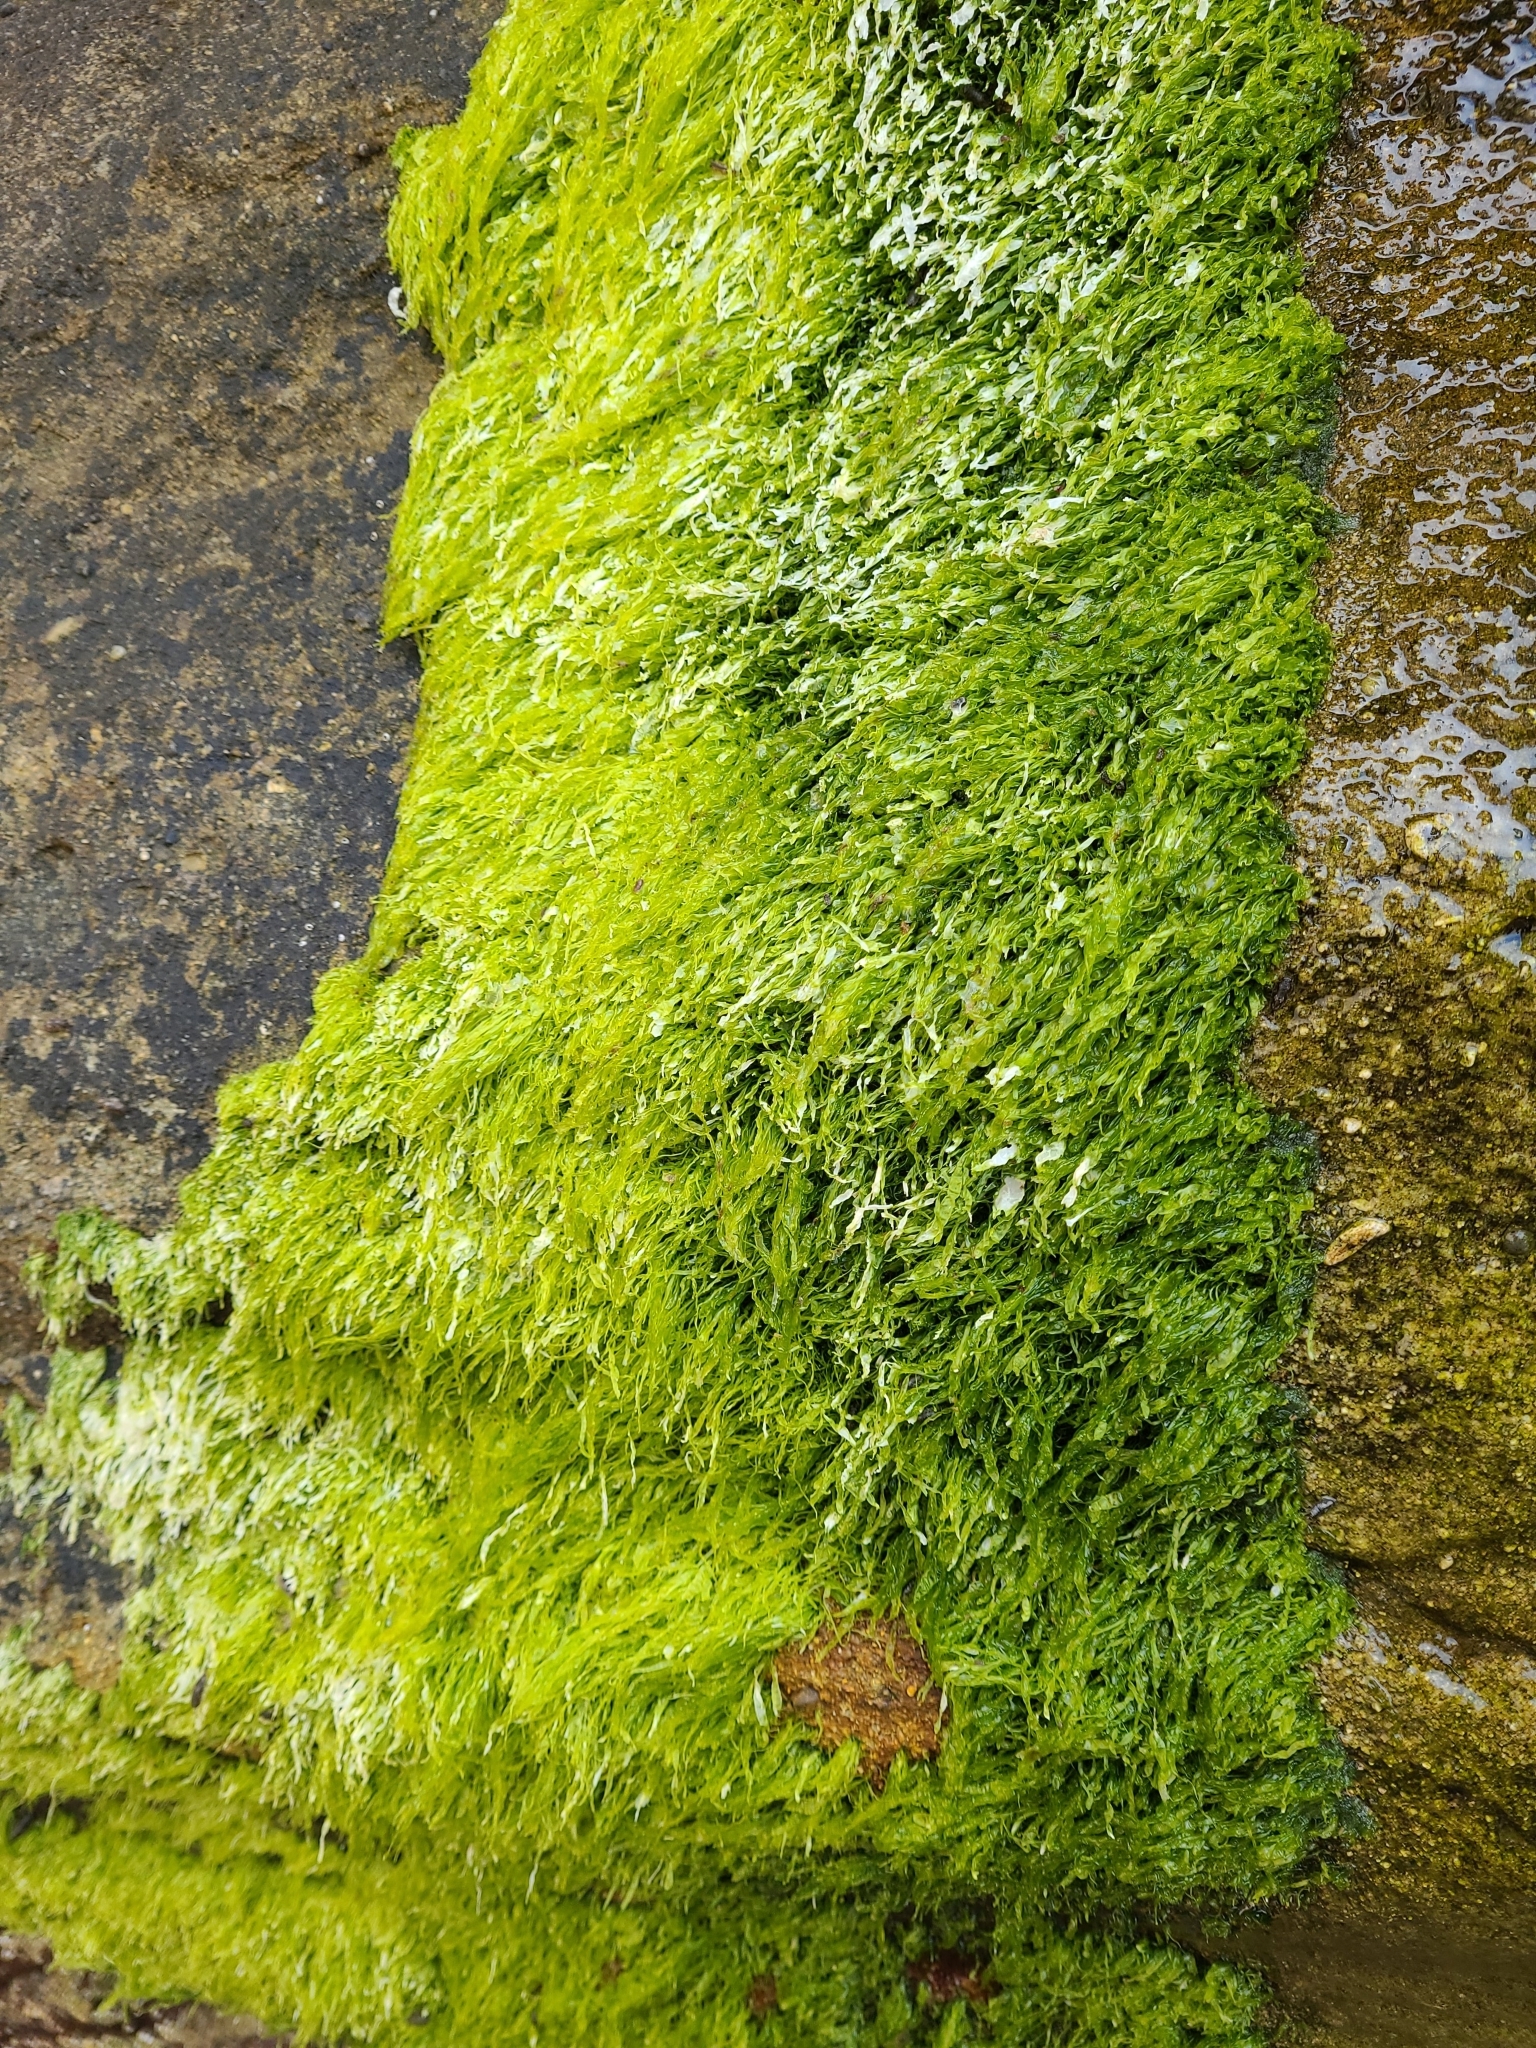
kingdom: Plantae
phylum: Chlorophyta
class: Ulvophyceae
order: Ulvales
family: Ulvaceae
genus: Ulva
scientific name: Ulva intestinalis
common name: Gut weed
